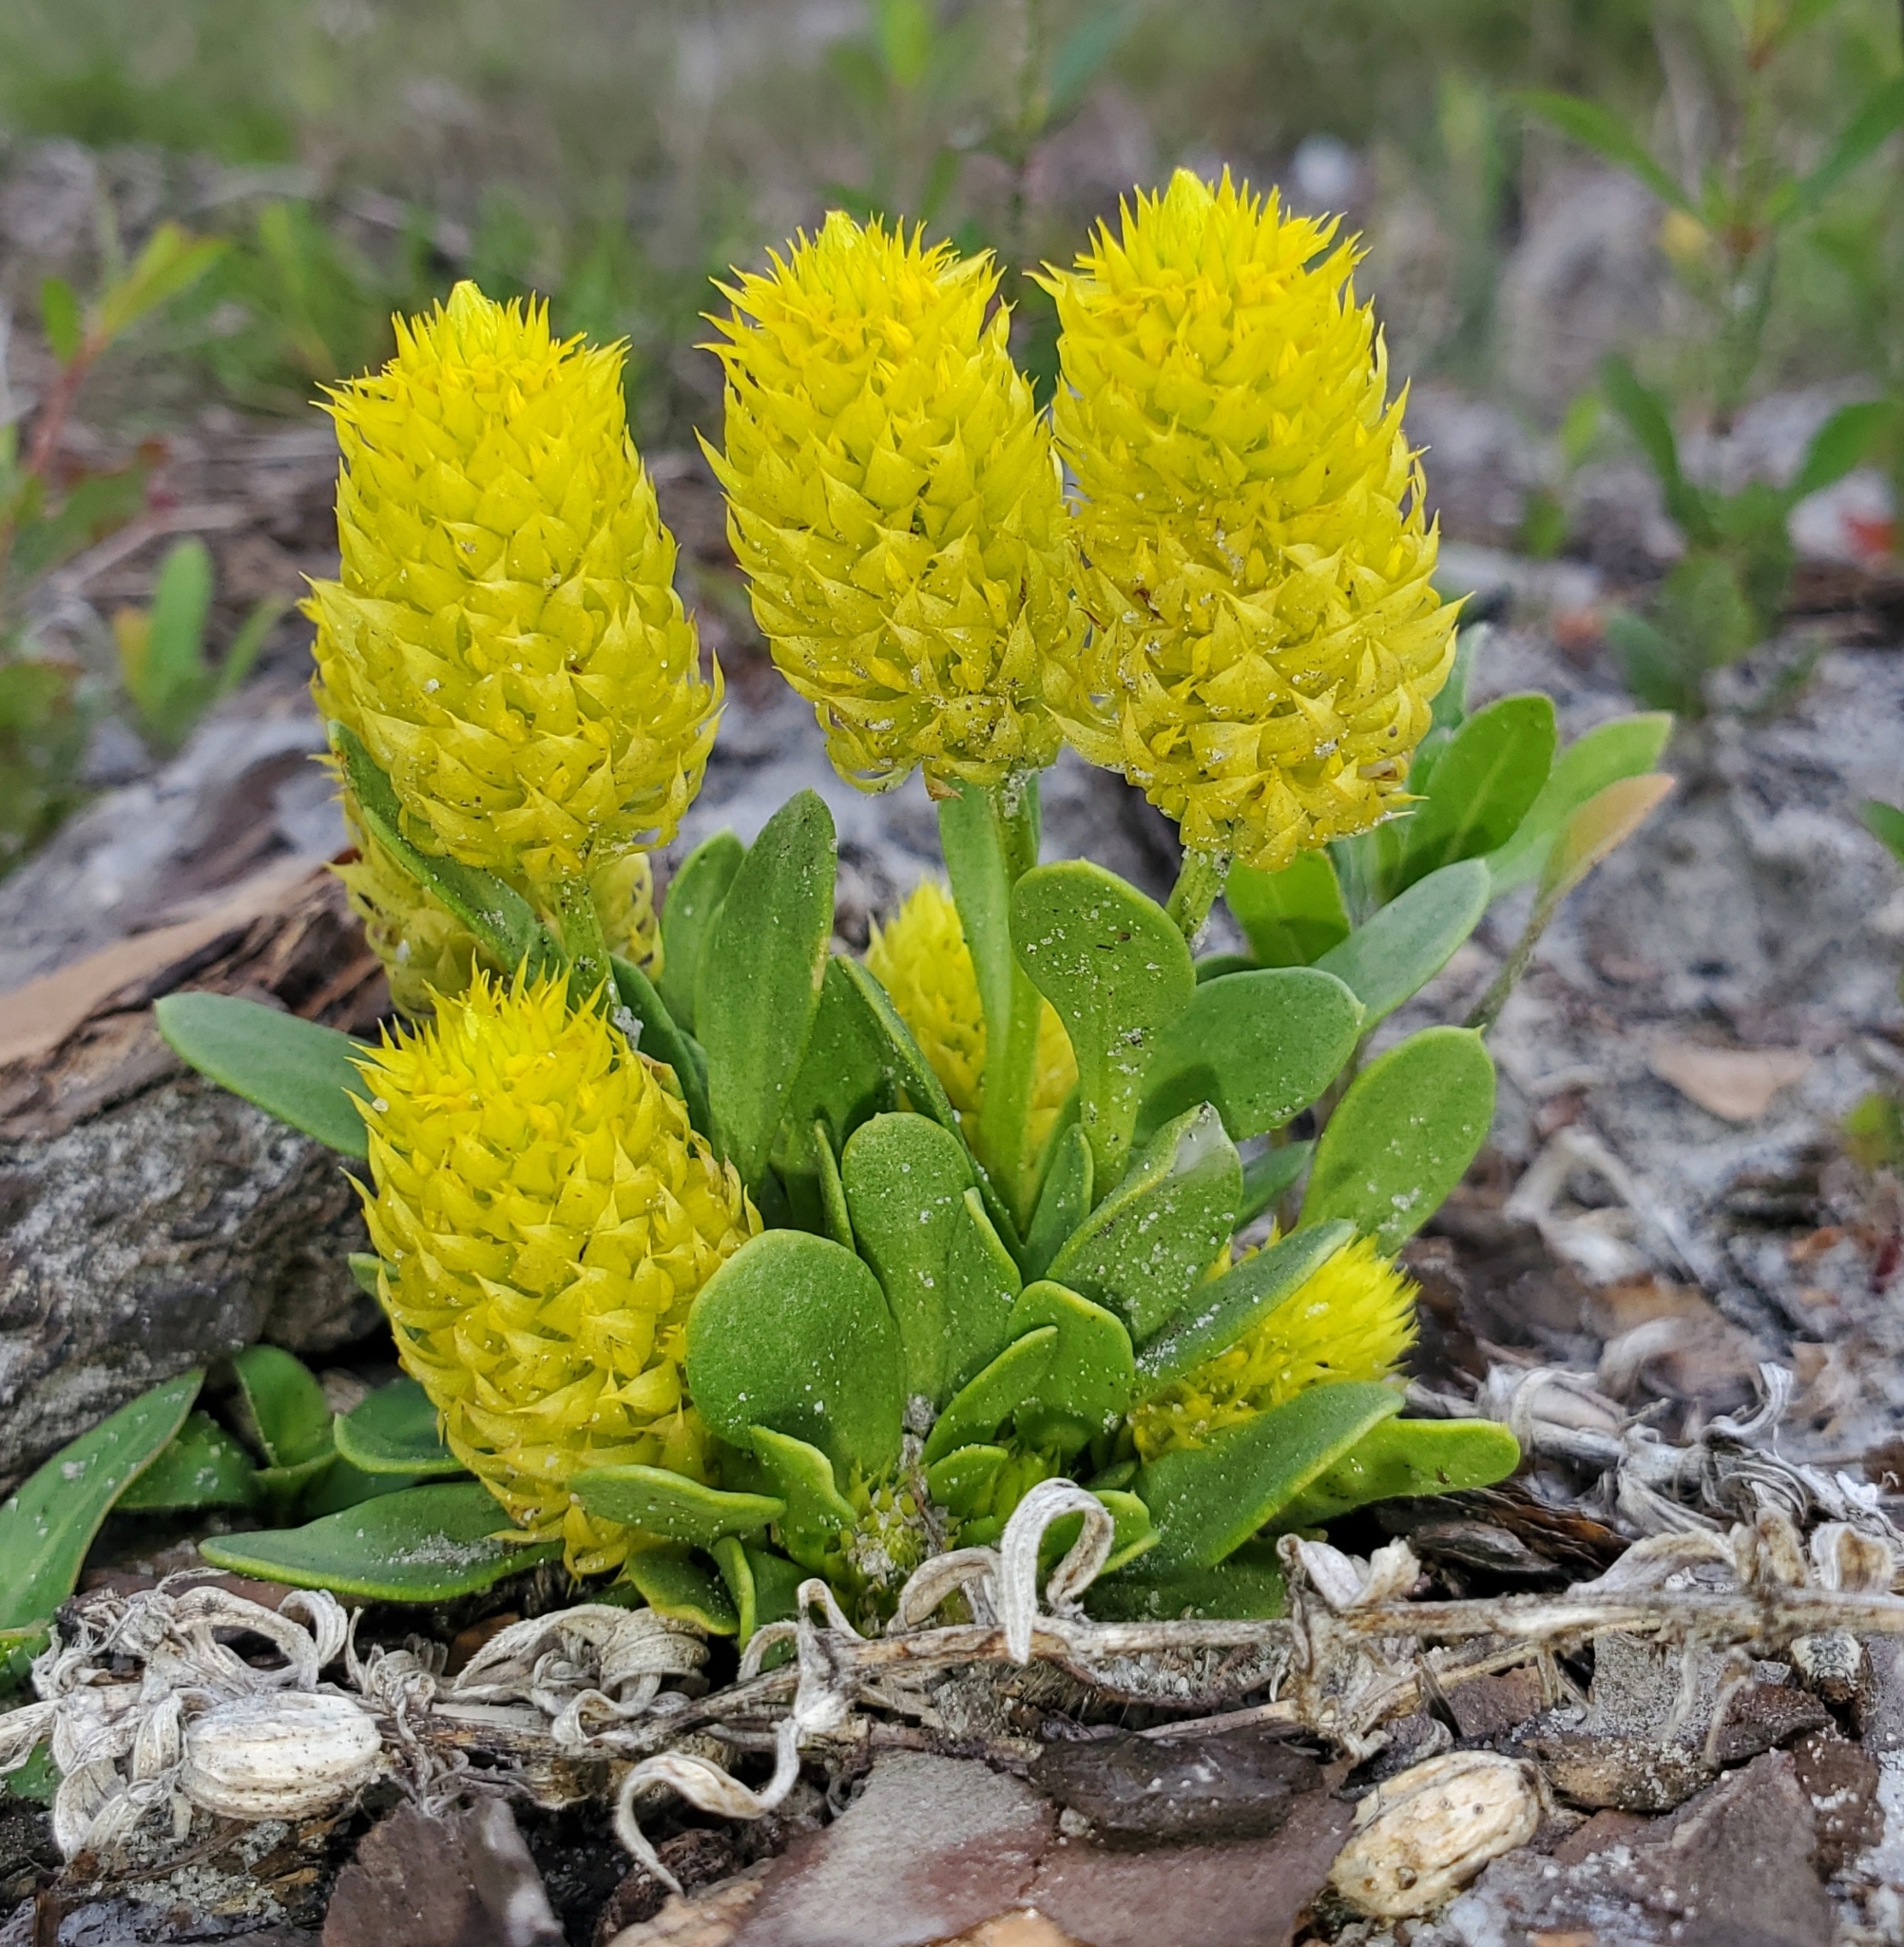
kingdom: Plantae
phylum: Tracheophyta
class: Magnoliopsida
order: Fabales
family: Polygalaceae
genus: Polygala
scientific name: Polygala nana
